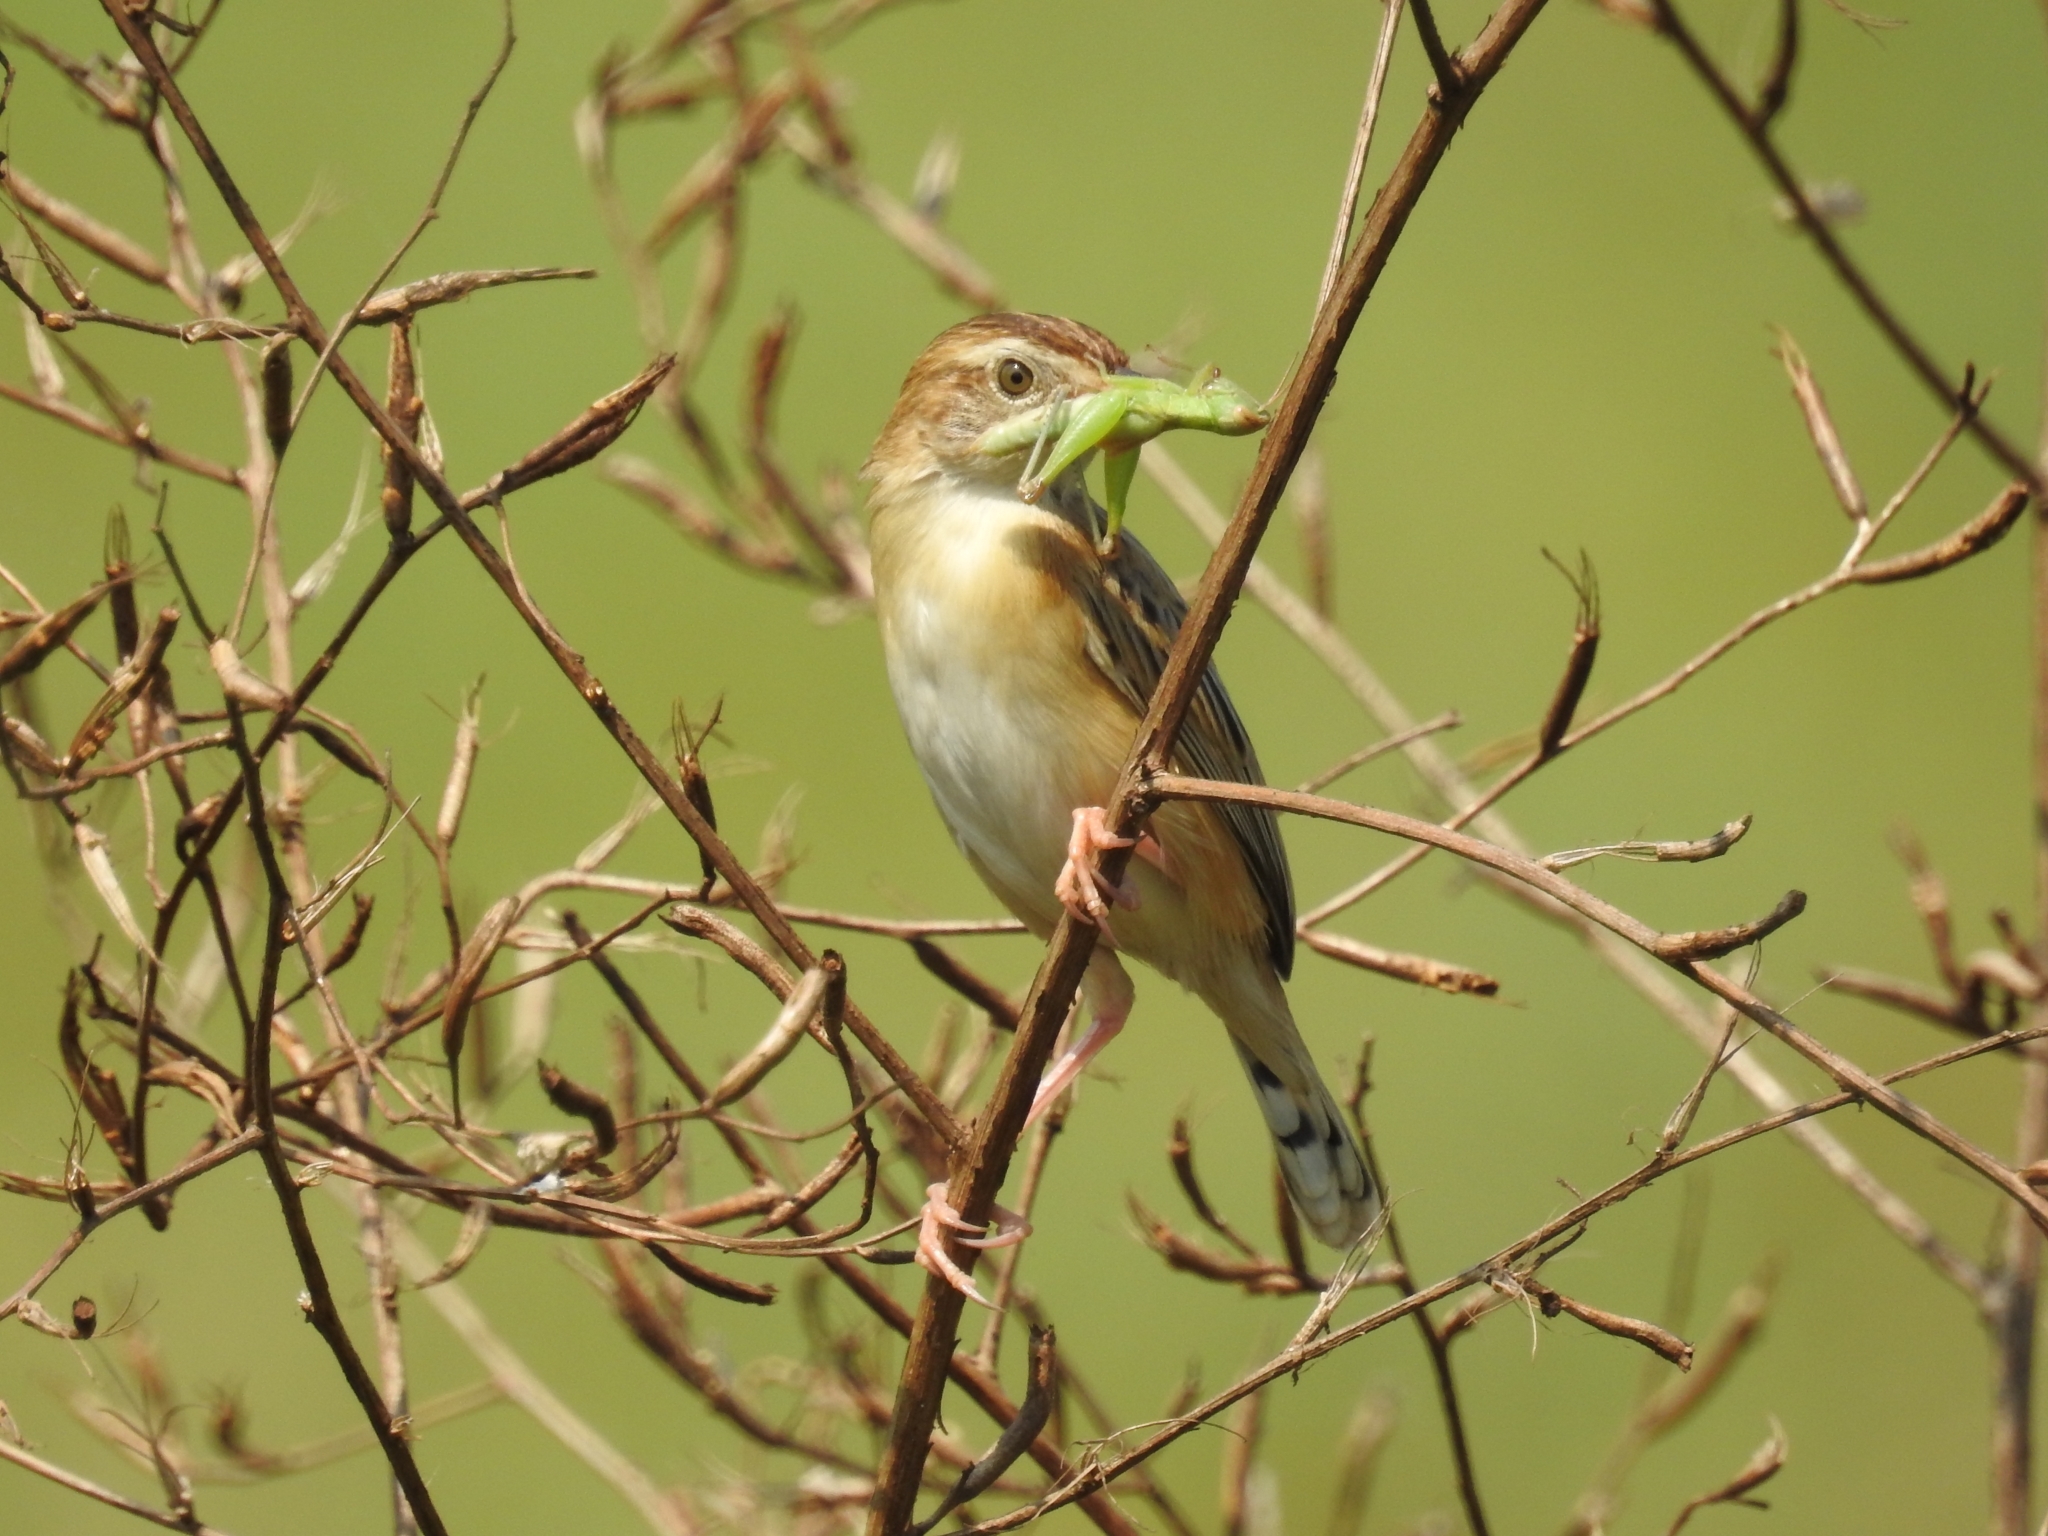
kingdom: Animalia
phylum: Chordata
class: Aves
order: Passeriformes
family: Cisticolidae
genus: Cisticola
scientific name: Cisticola juncidis
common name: Zitting cisticola
